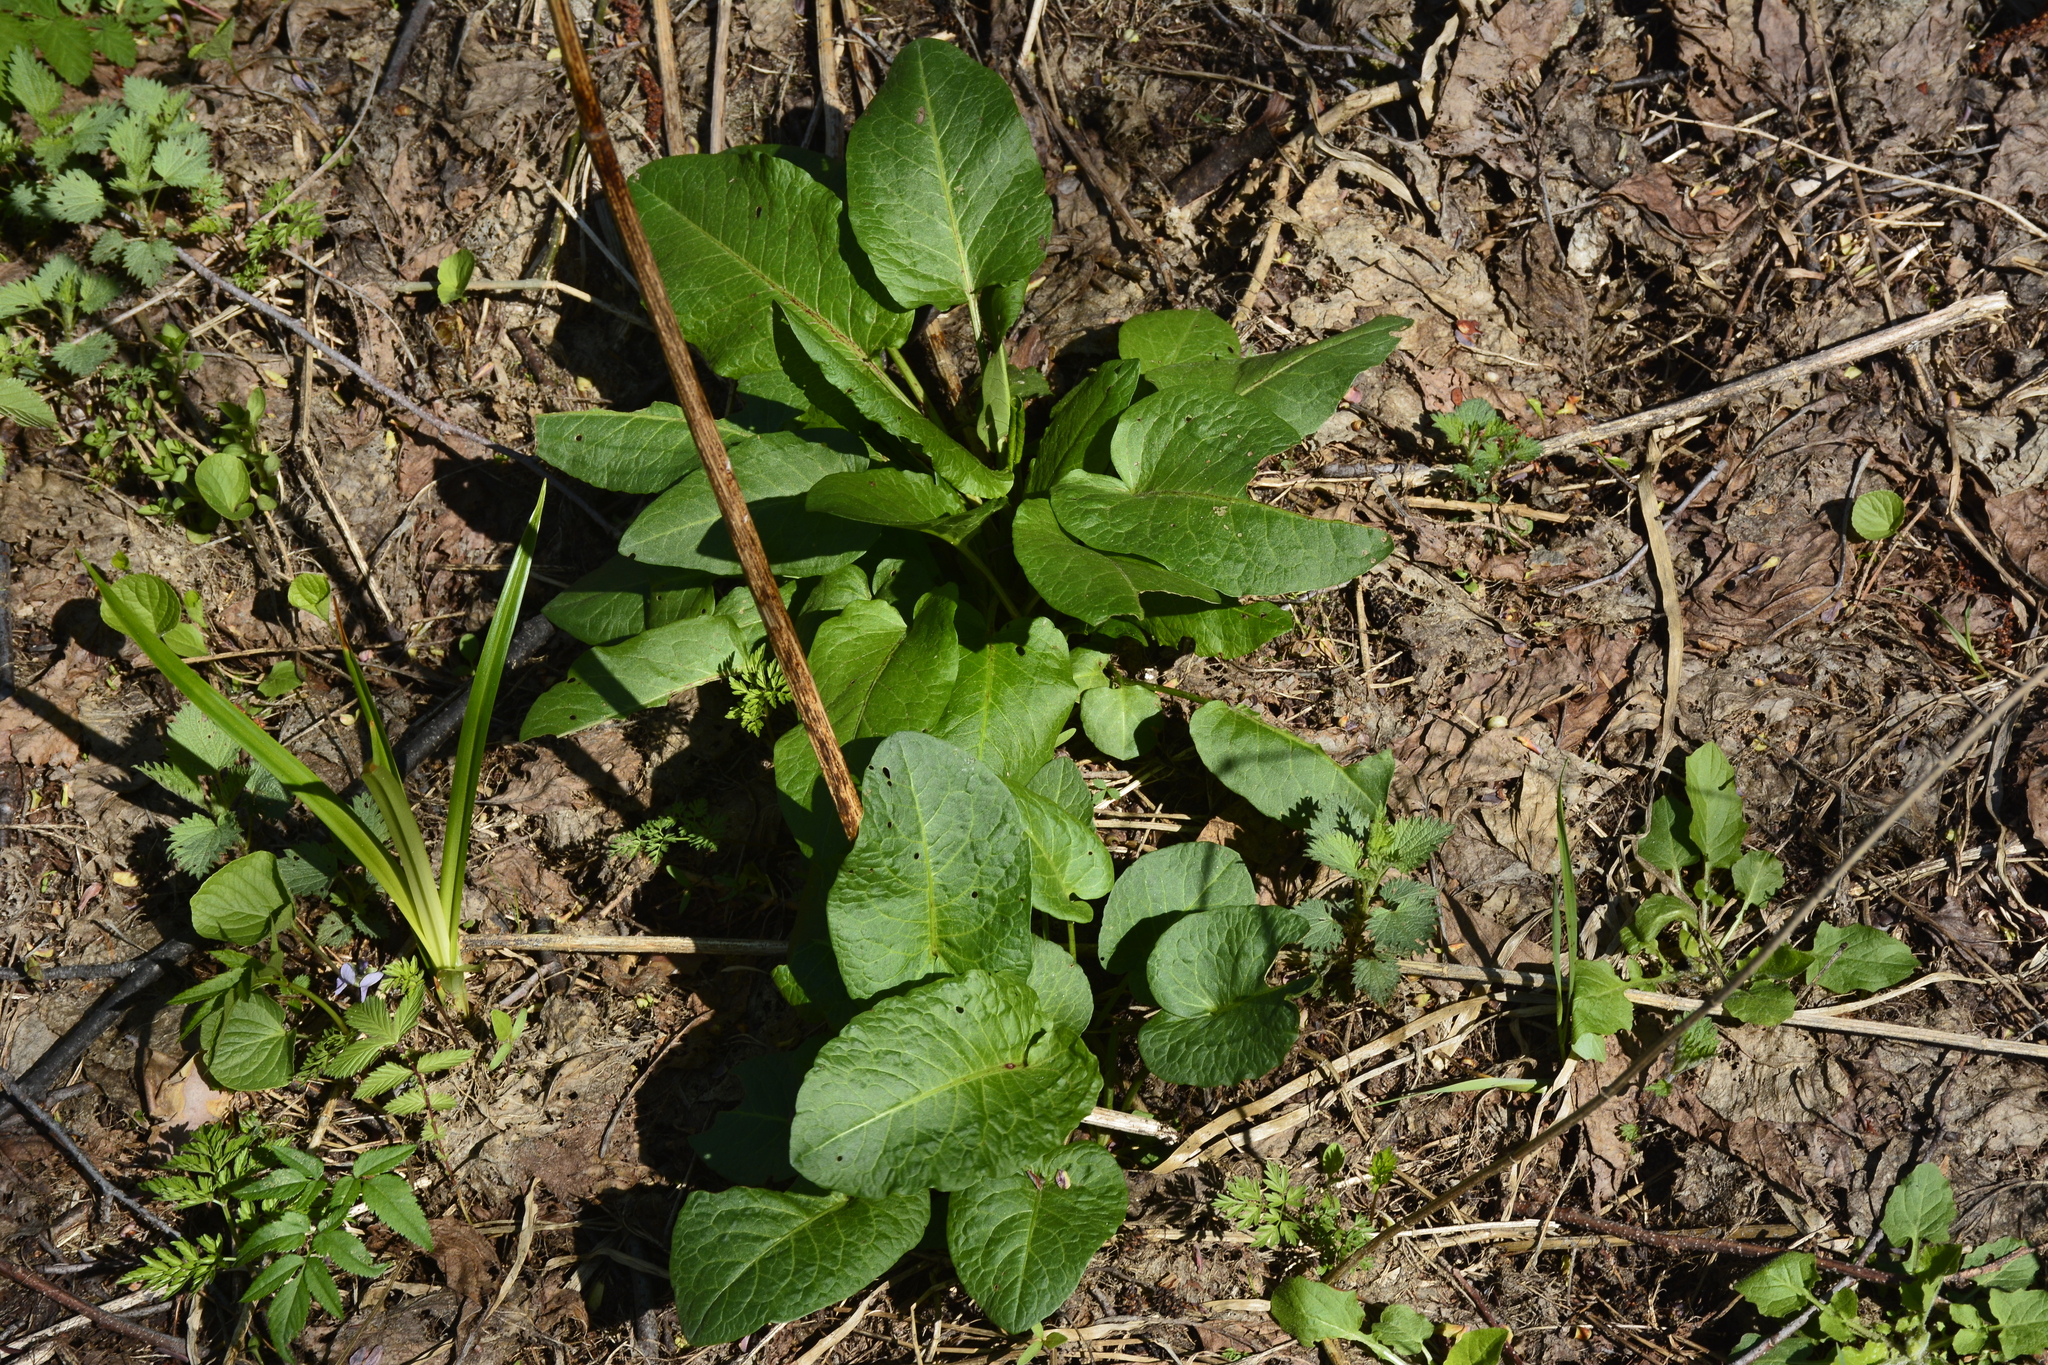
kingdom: Plantae
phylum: Tracheophyta
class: Magnoliopsida
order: Caryophyllales
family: Polygonaceae
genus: Rumex
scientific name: Rumex obtusifolius
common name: Bitter dock
